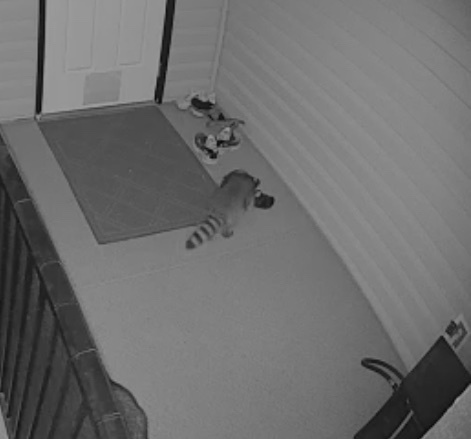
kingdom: Animalia
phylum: Chordata
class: Mammalia
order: Carnivora
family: Procyonidae
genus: Procyon
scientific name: Procyon lotor
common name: Raccoon
